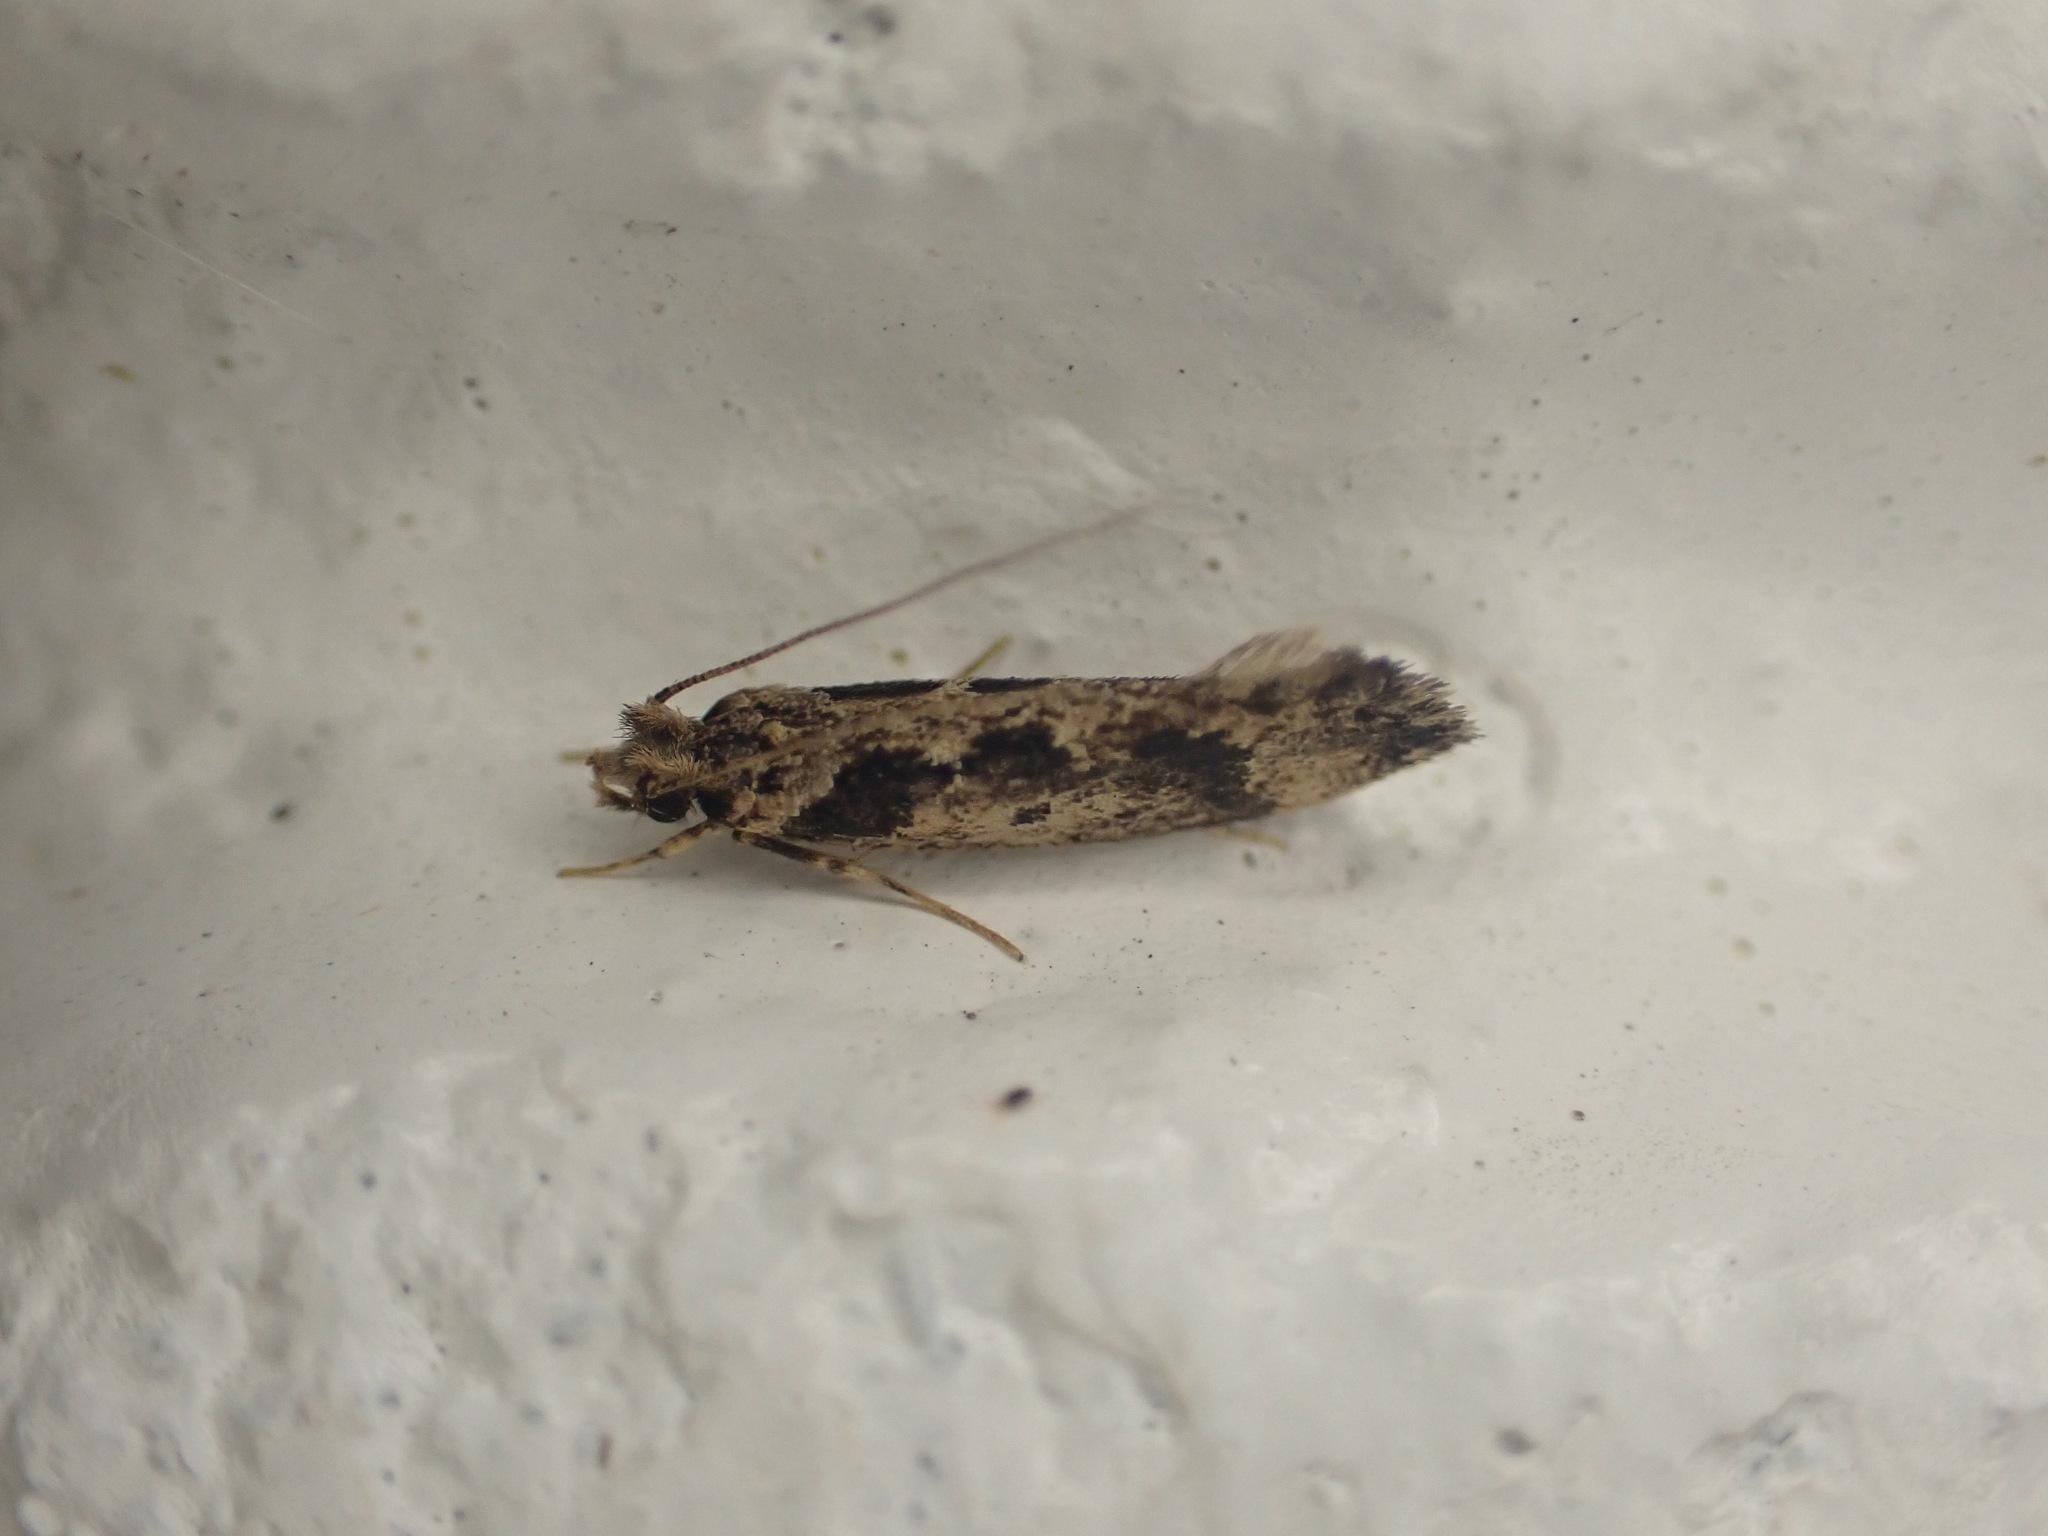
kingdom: Animalia
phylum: Arthropoda
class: Insecta
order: Lepidoptera
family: Tineidae
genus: Erechthias
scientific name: Erechthias capnitis
